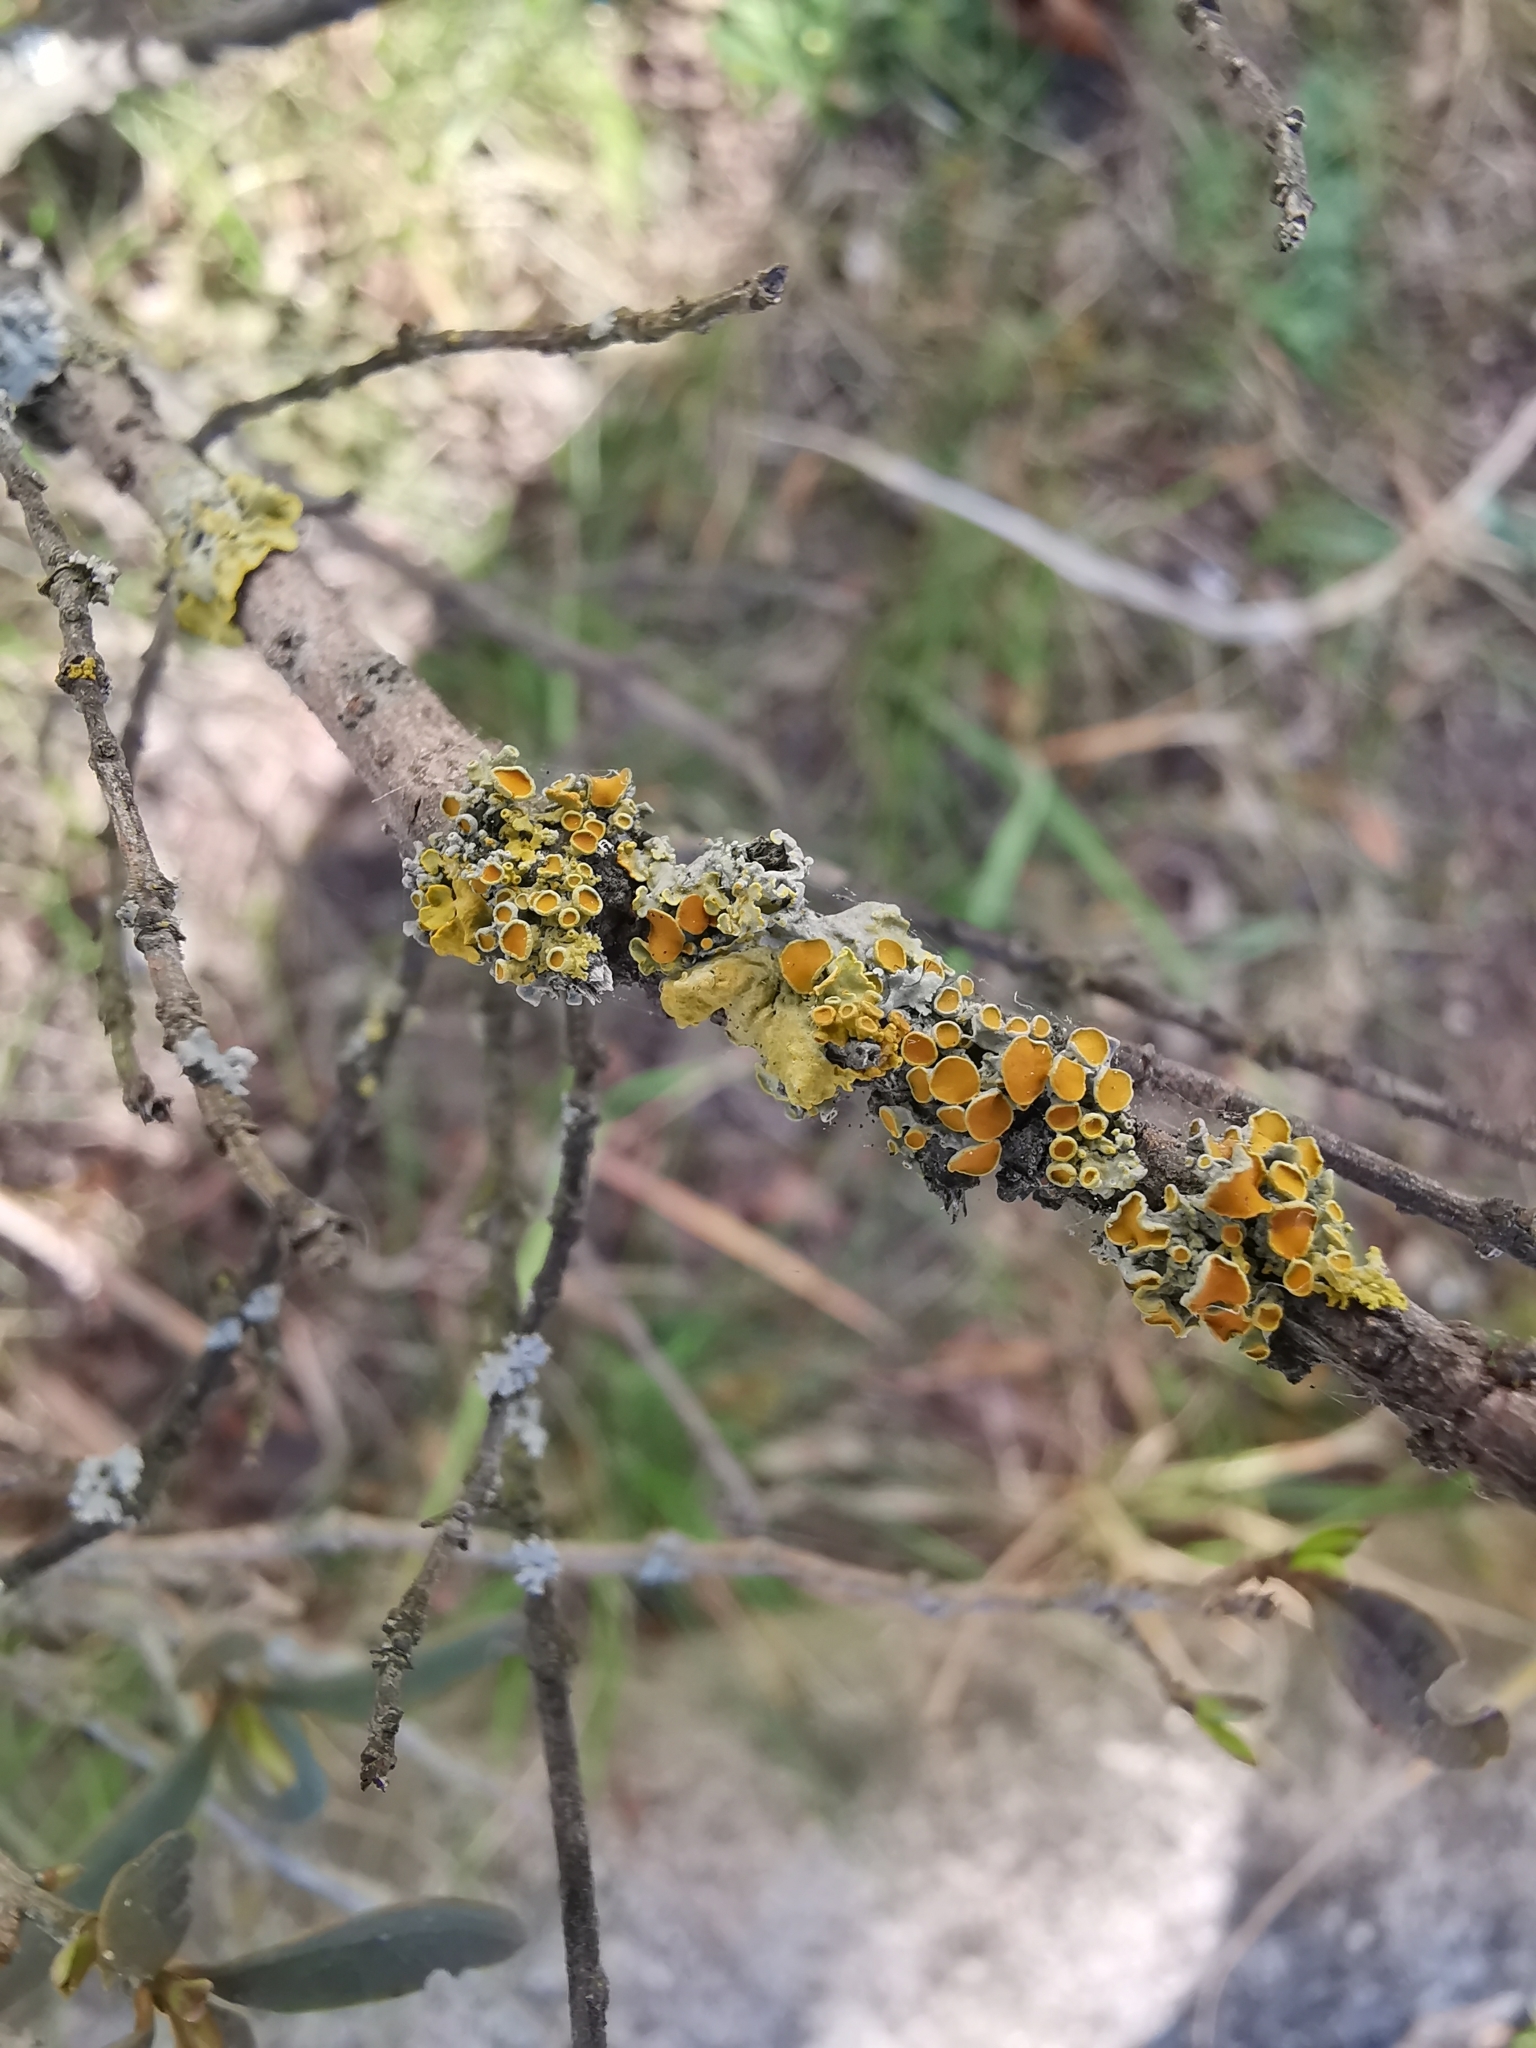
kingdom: Fungi
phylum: Ascomycota
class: Lecanoromycetes
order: Teloschistales
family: Teloschistaceae
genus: Xanthoria
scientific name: Xanthoria parietina
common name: Common orange lichen
